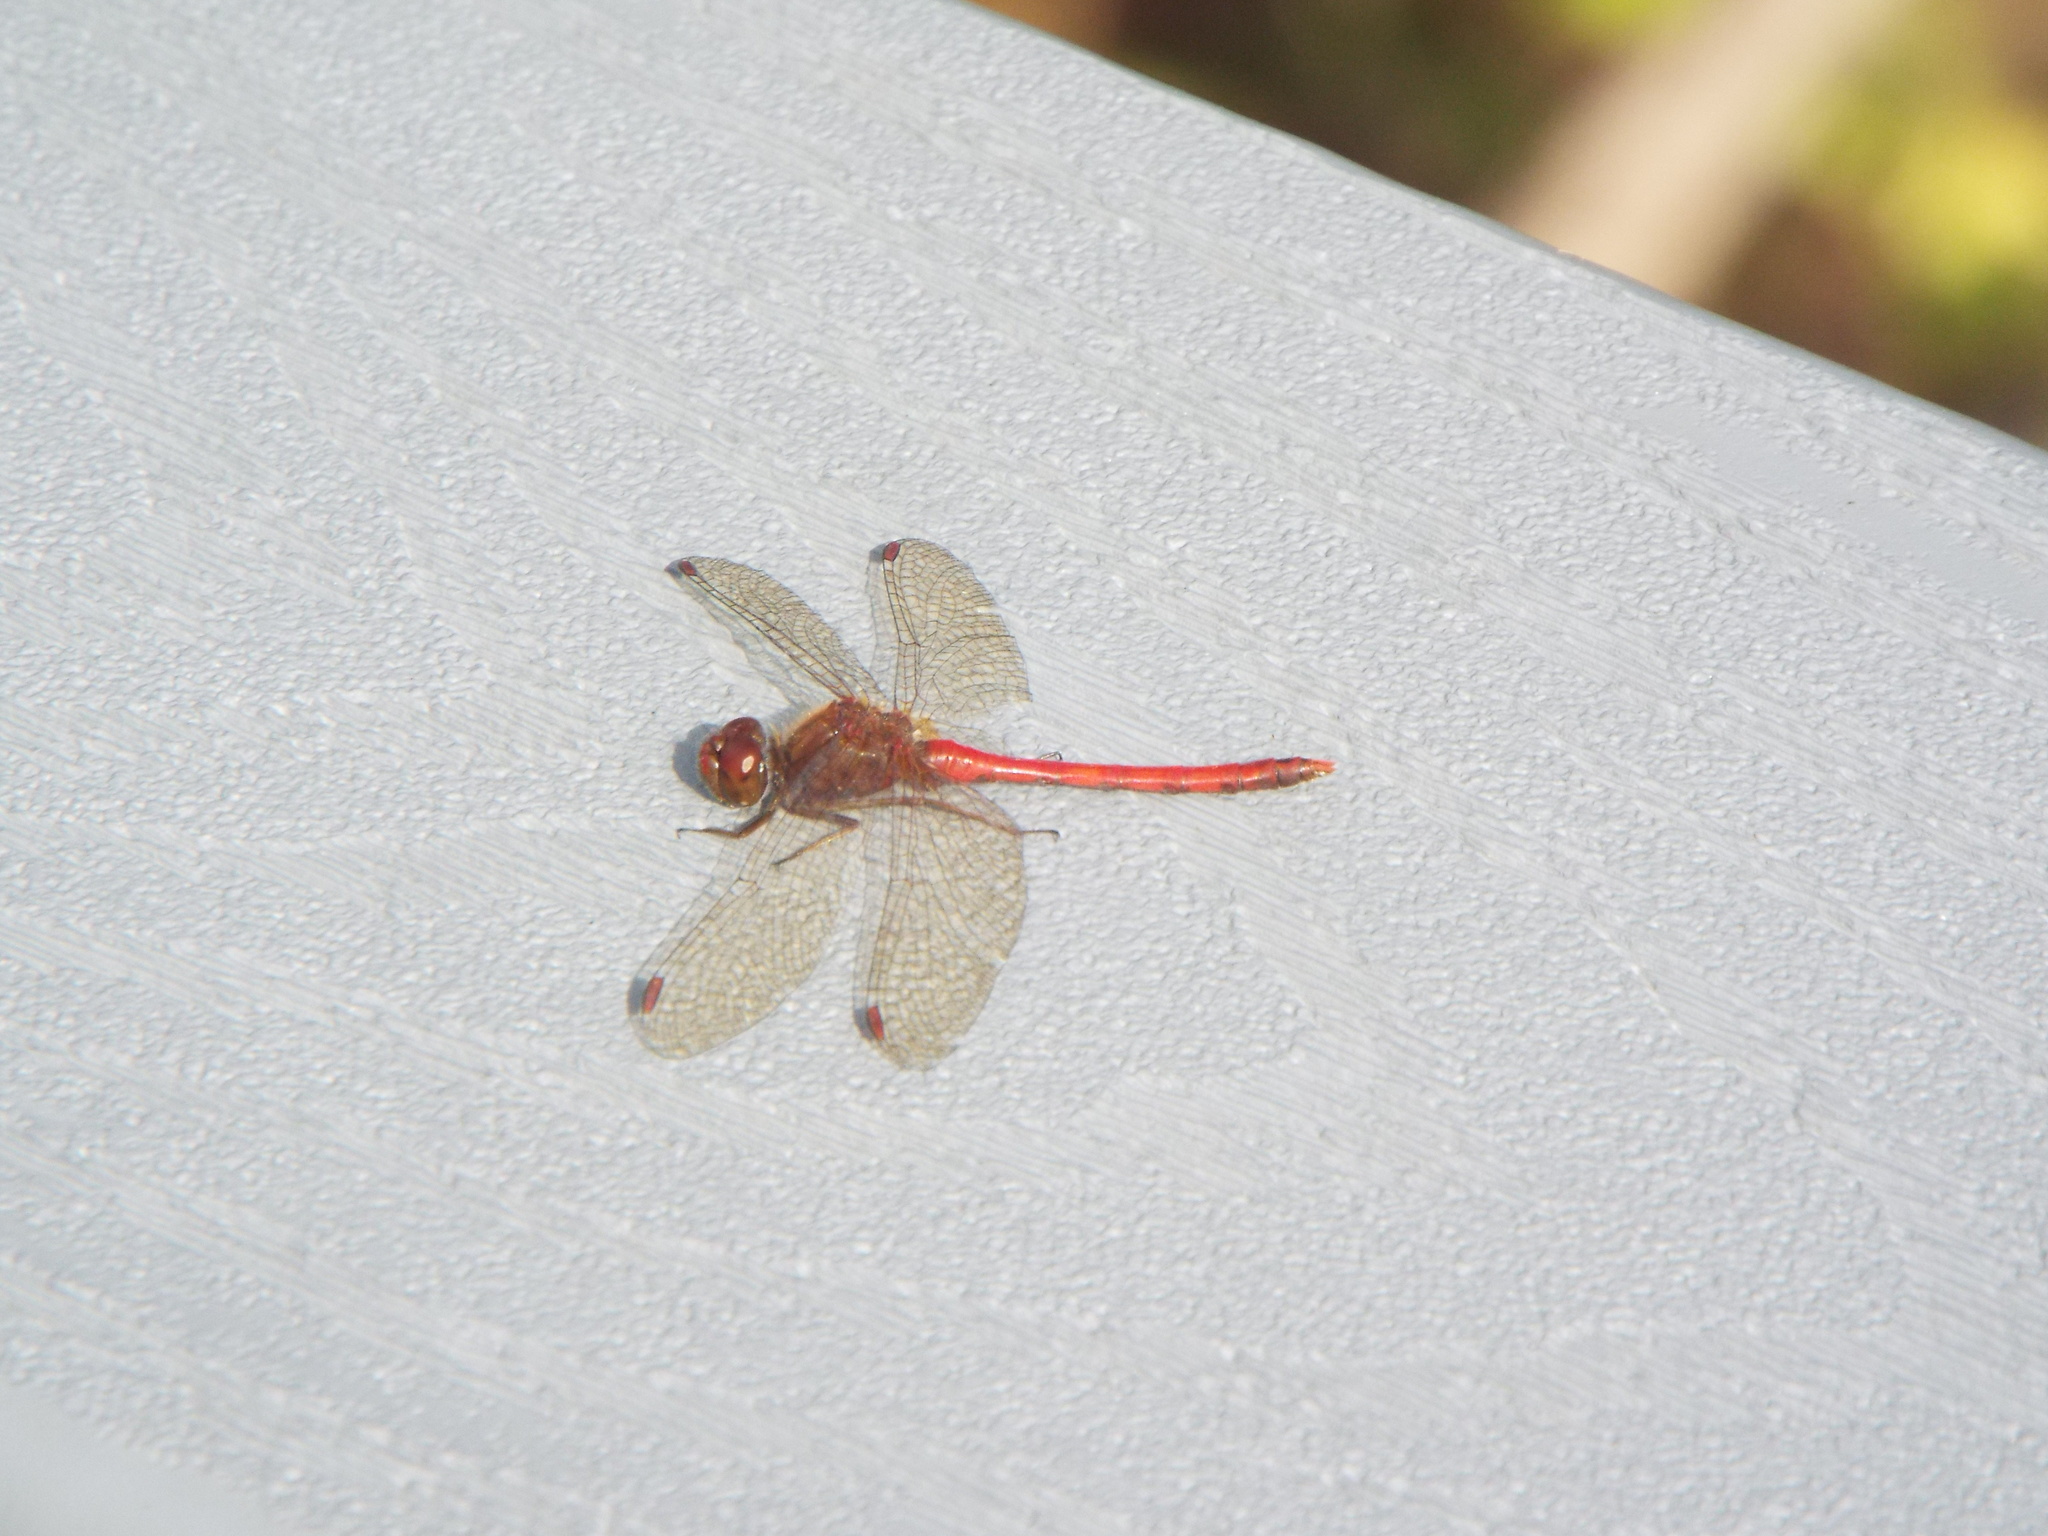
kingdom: Animalia
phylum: Arthropoda
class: Insecta
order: Odonata
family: Libellulidae
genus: Sympetrum
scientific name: Sympetrum vicinum
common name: Autumn meadowhawk
